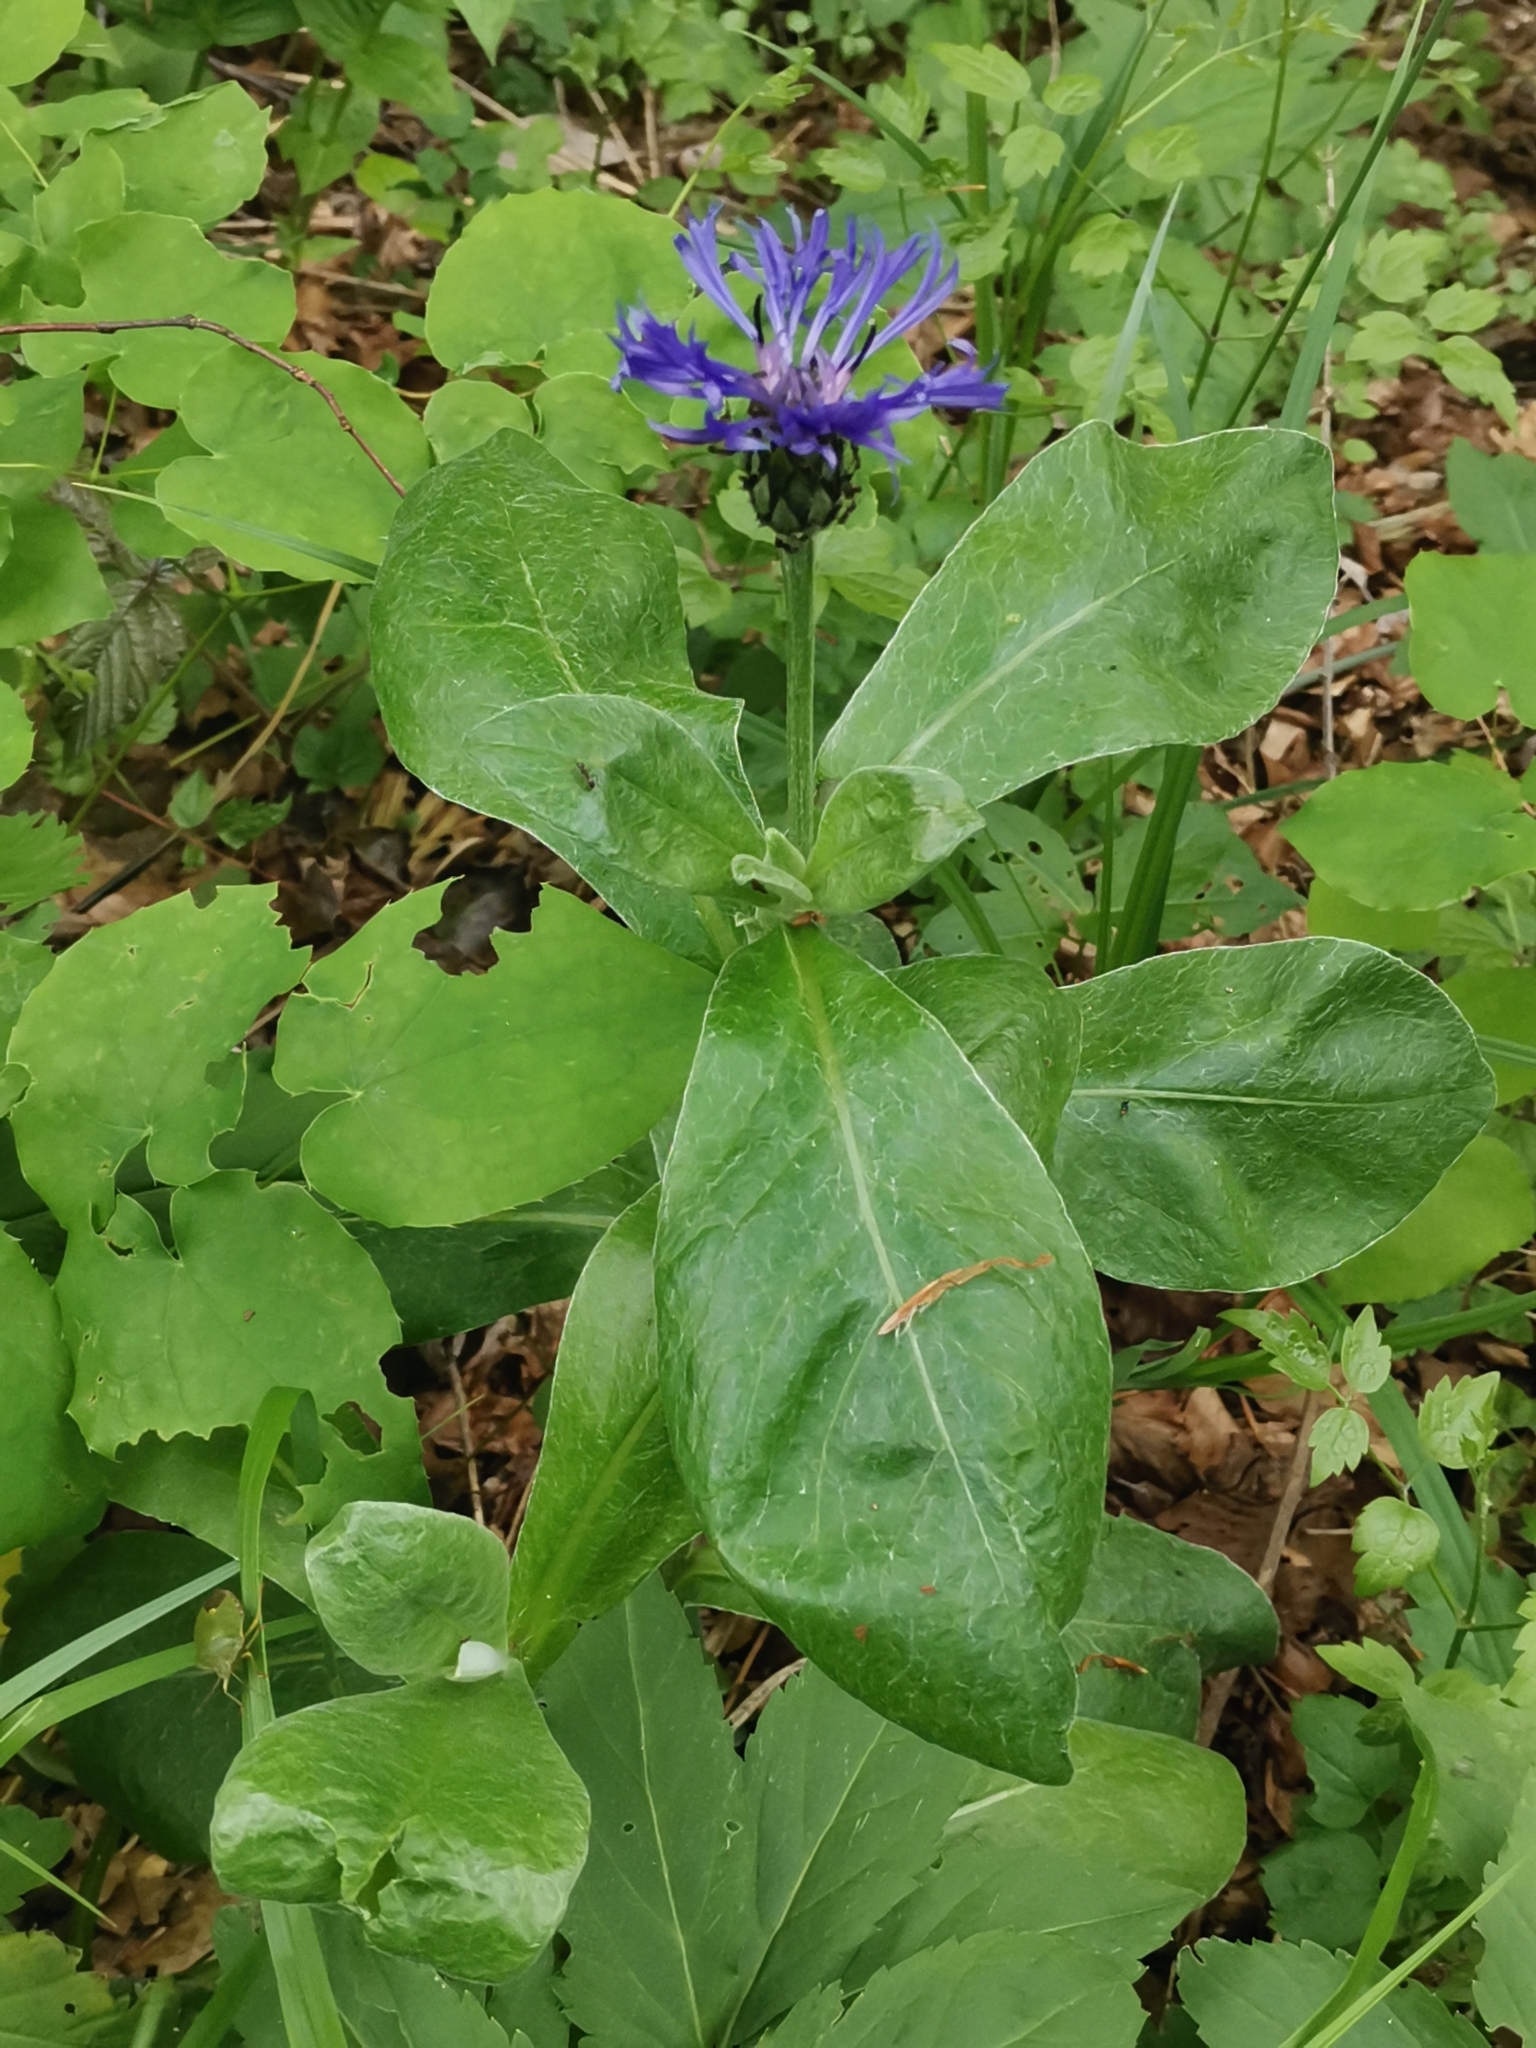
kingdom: Plantae
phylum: Tracheophyta
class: Magnoliopsida
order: Asterales
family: Asteraceae
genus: Centaurea
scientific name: Centaurea montana
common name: Perennial cornflower
